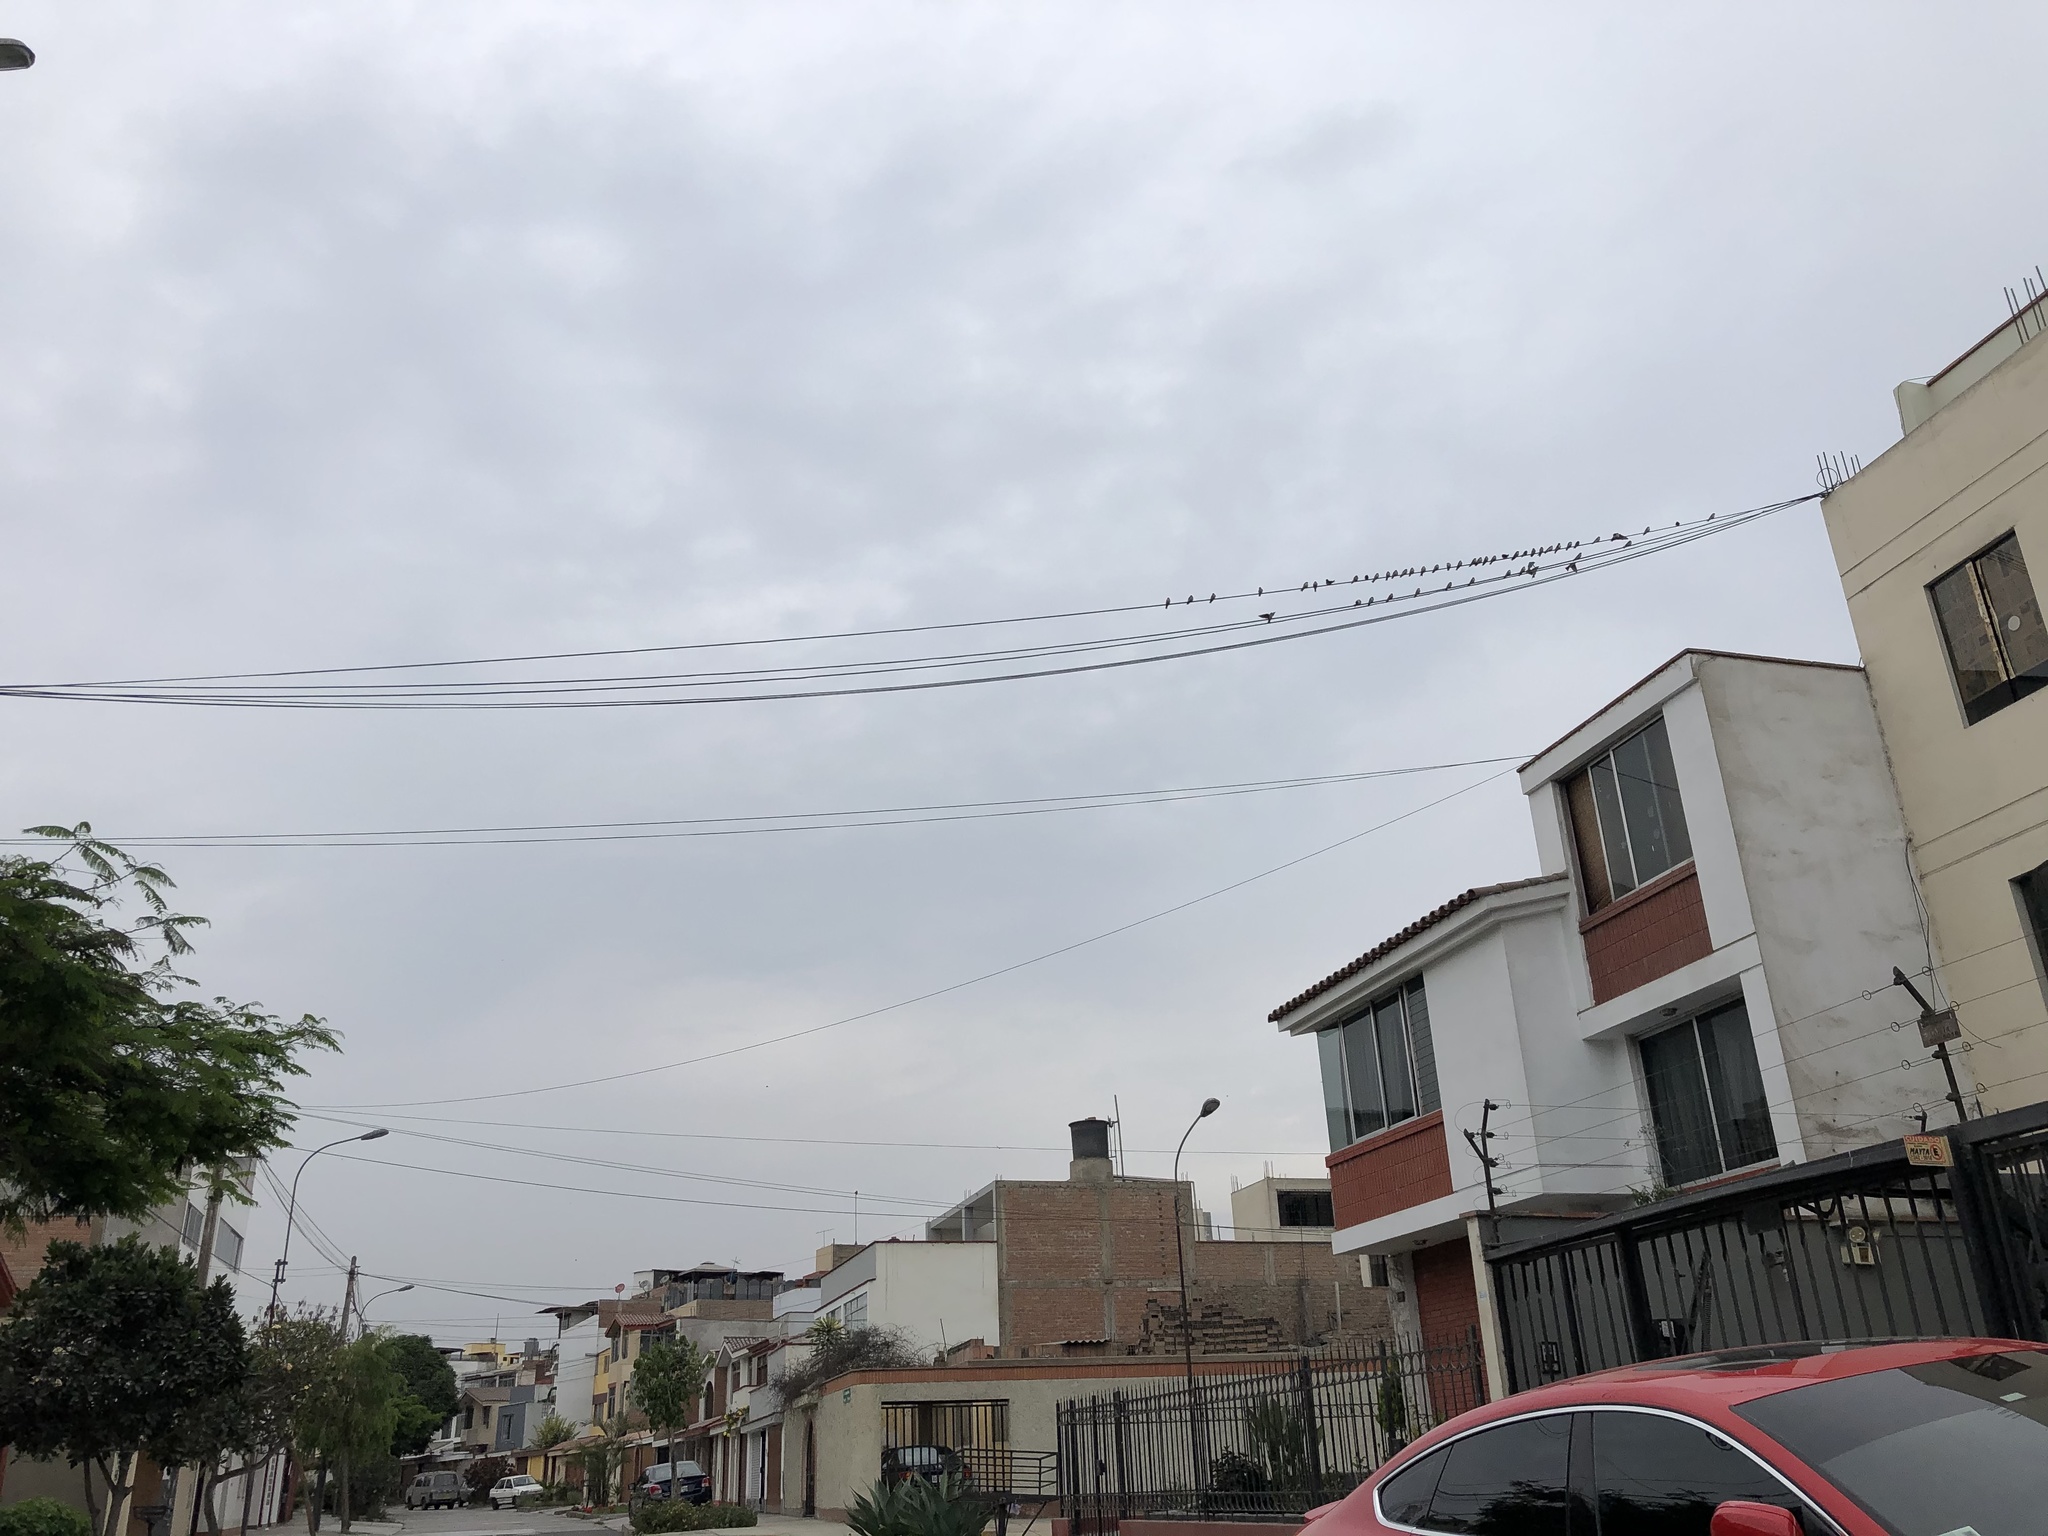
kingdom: Animalia
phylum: Chordata
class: Aves
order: Passeriformes
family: Hirundinidae
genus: Notiochelidon
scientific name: Notiochelidon cyanoleuca
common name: Blue-and-white swallow
